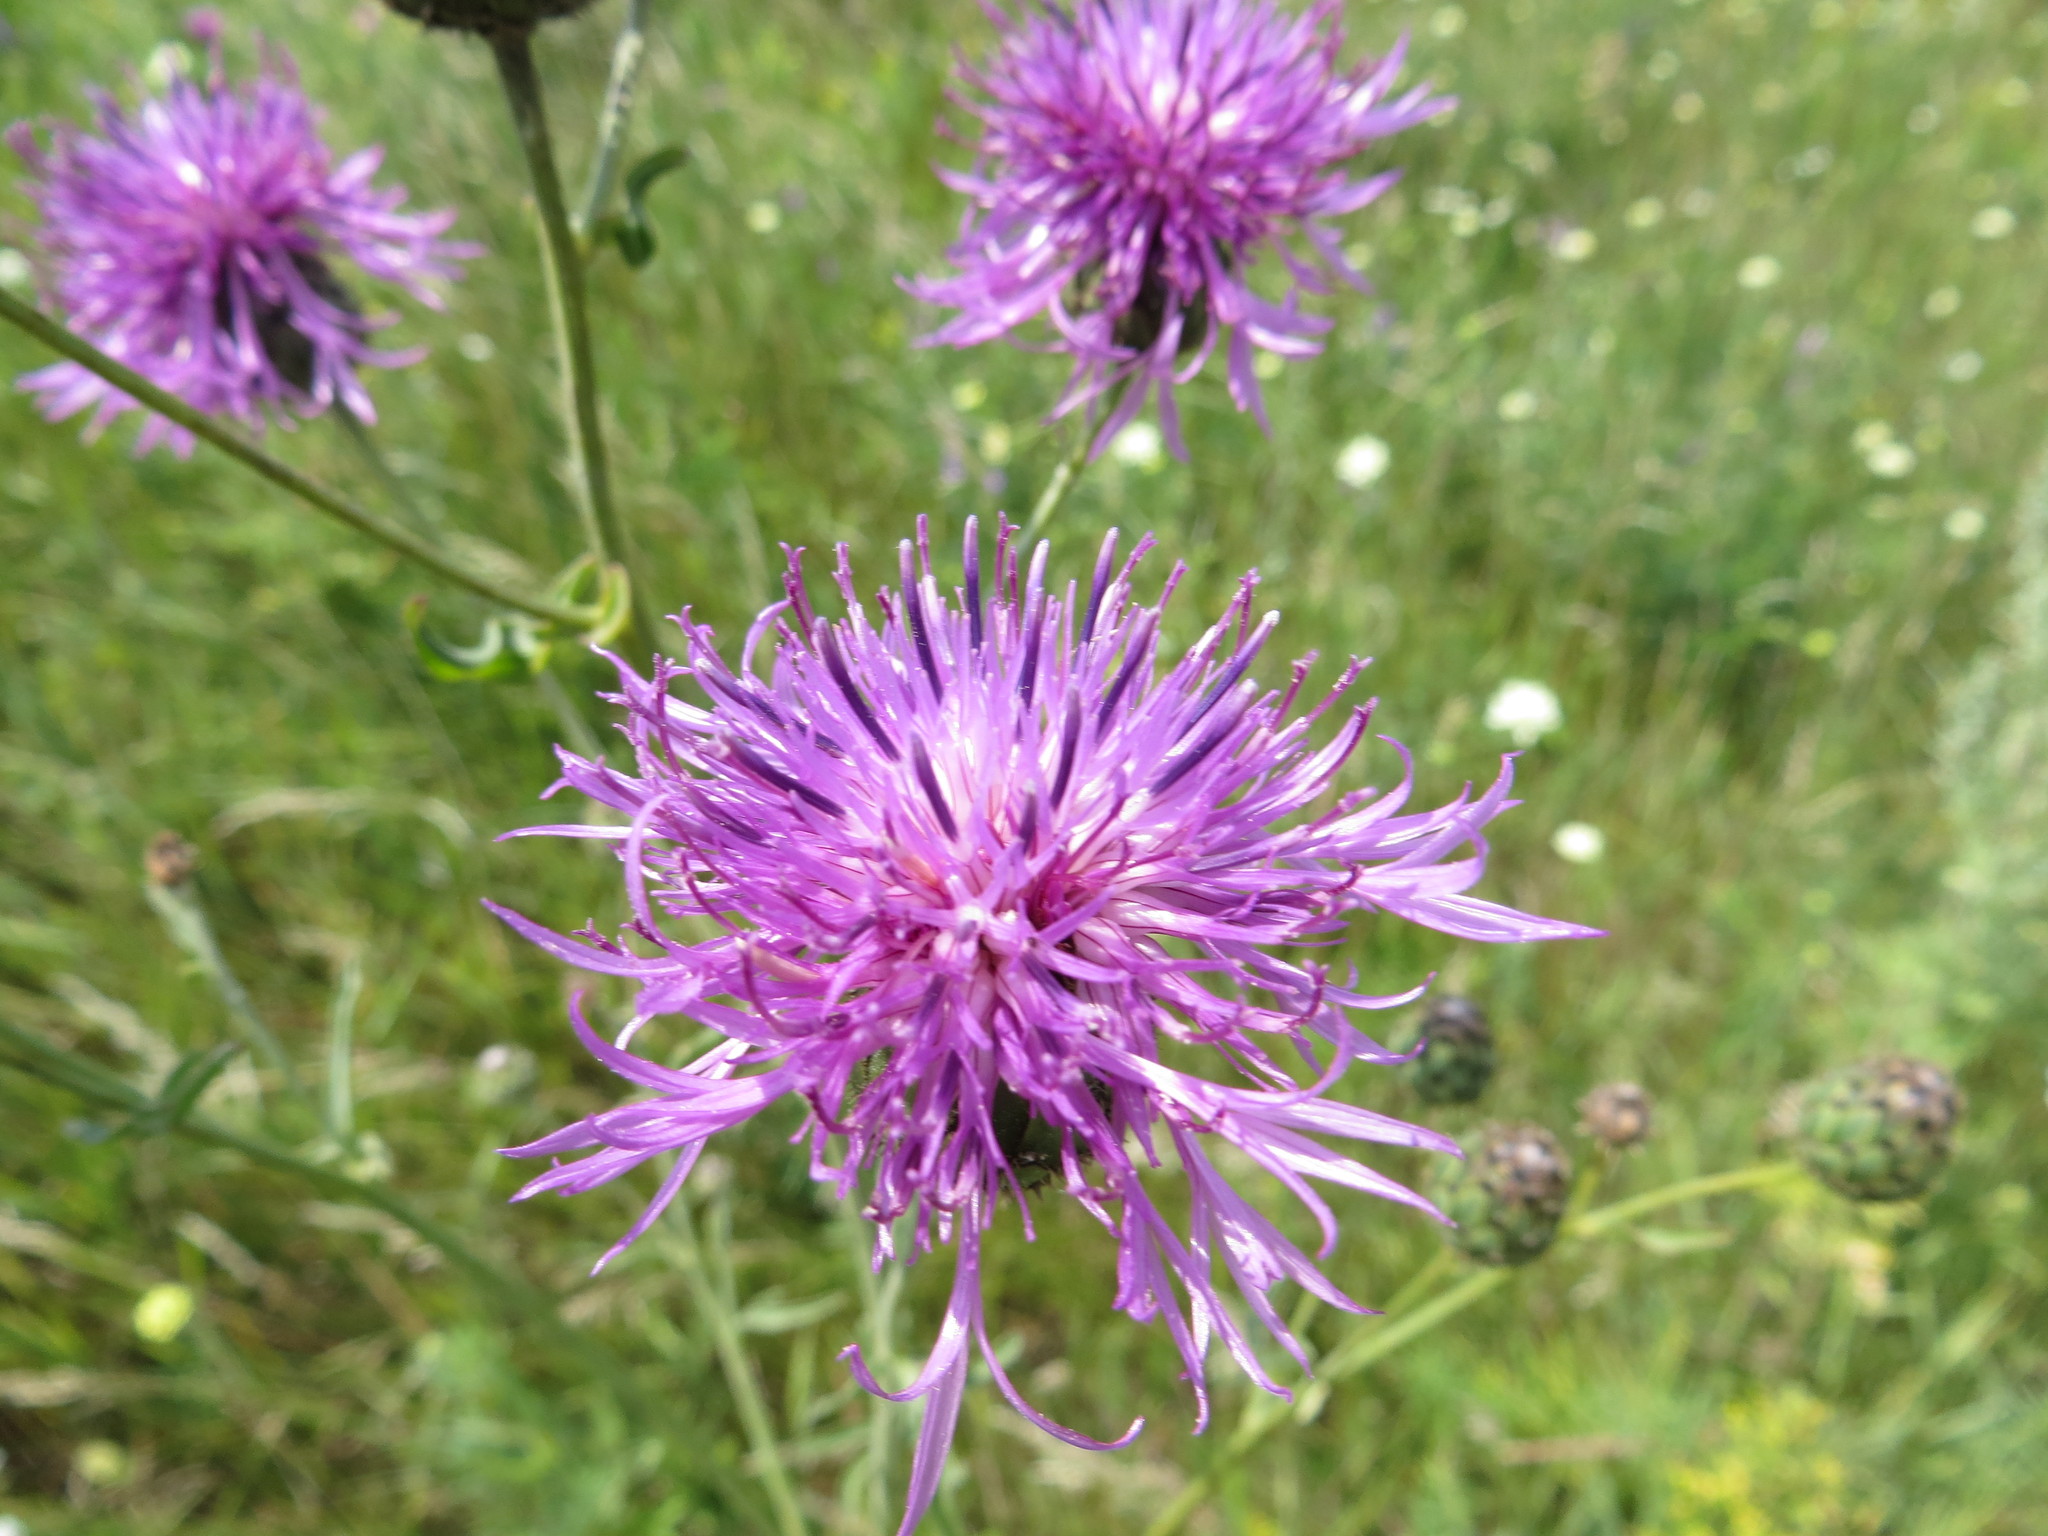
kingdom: Plantae
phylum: Tracheophyta
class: Magnoliopsida
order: Asterales
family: Asteraceae
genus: Centaurea
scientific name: Centaurea scabiosa
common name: Greater knapweed
